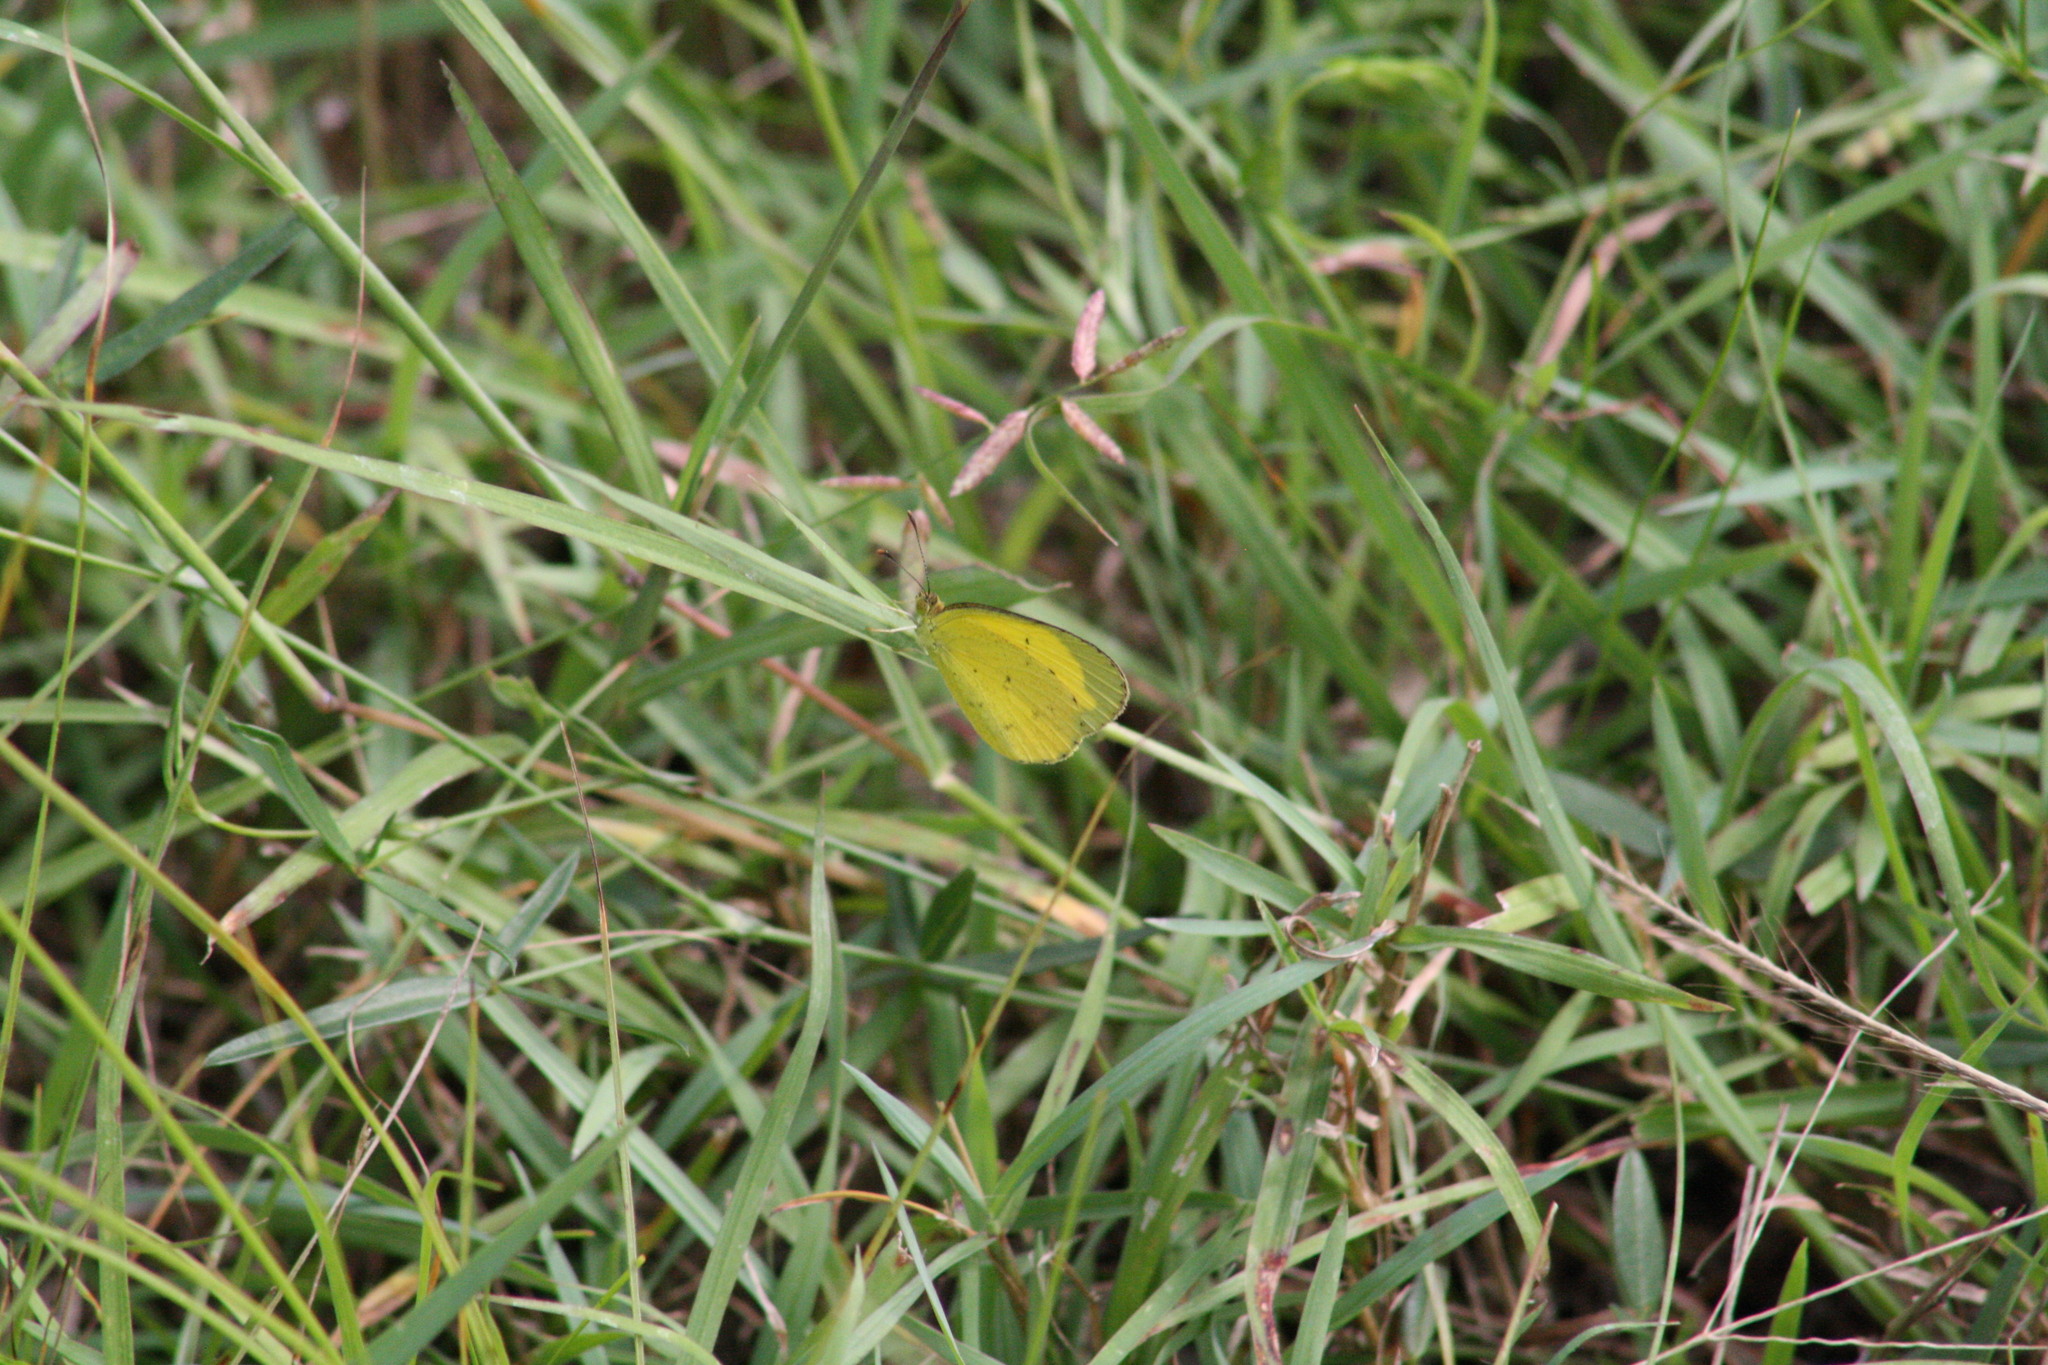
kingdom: Animalia
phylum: Arthropoda
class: Insecta
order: Lepidoptera
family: Pieridae
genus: Eurema
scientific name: Eurema smilax
